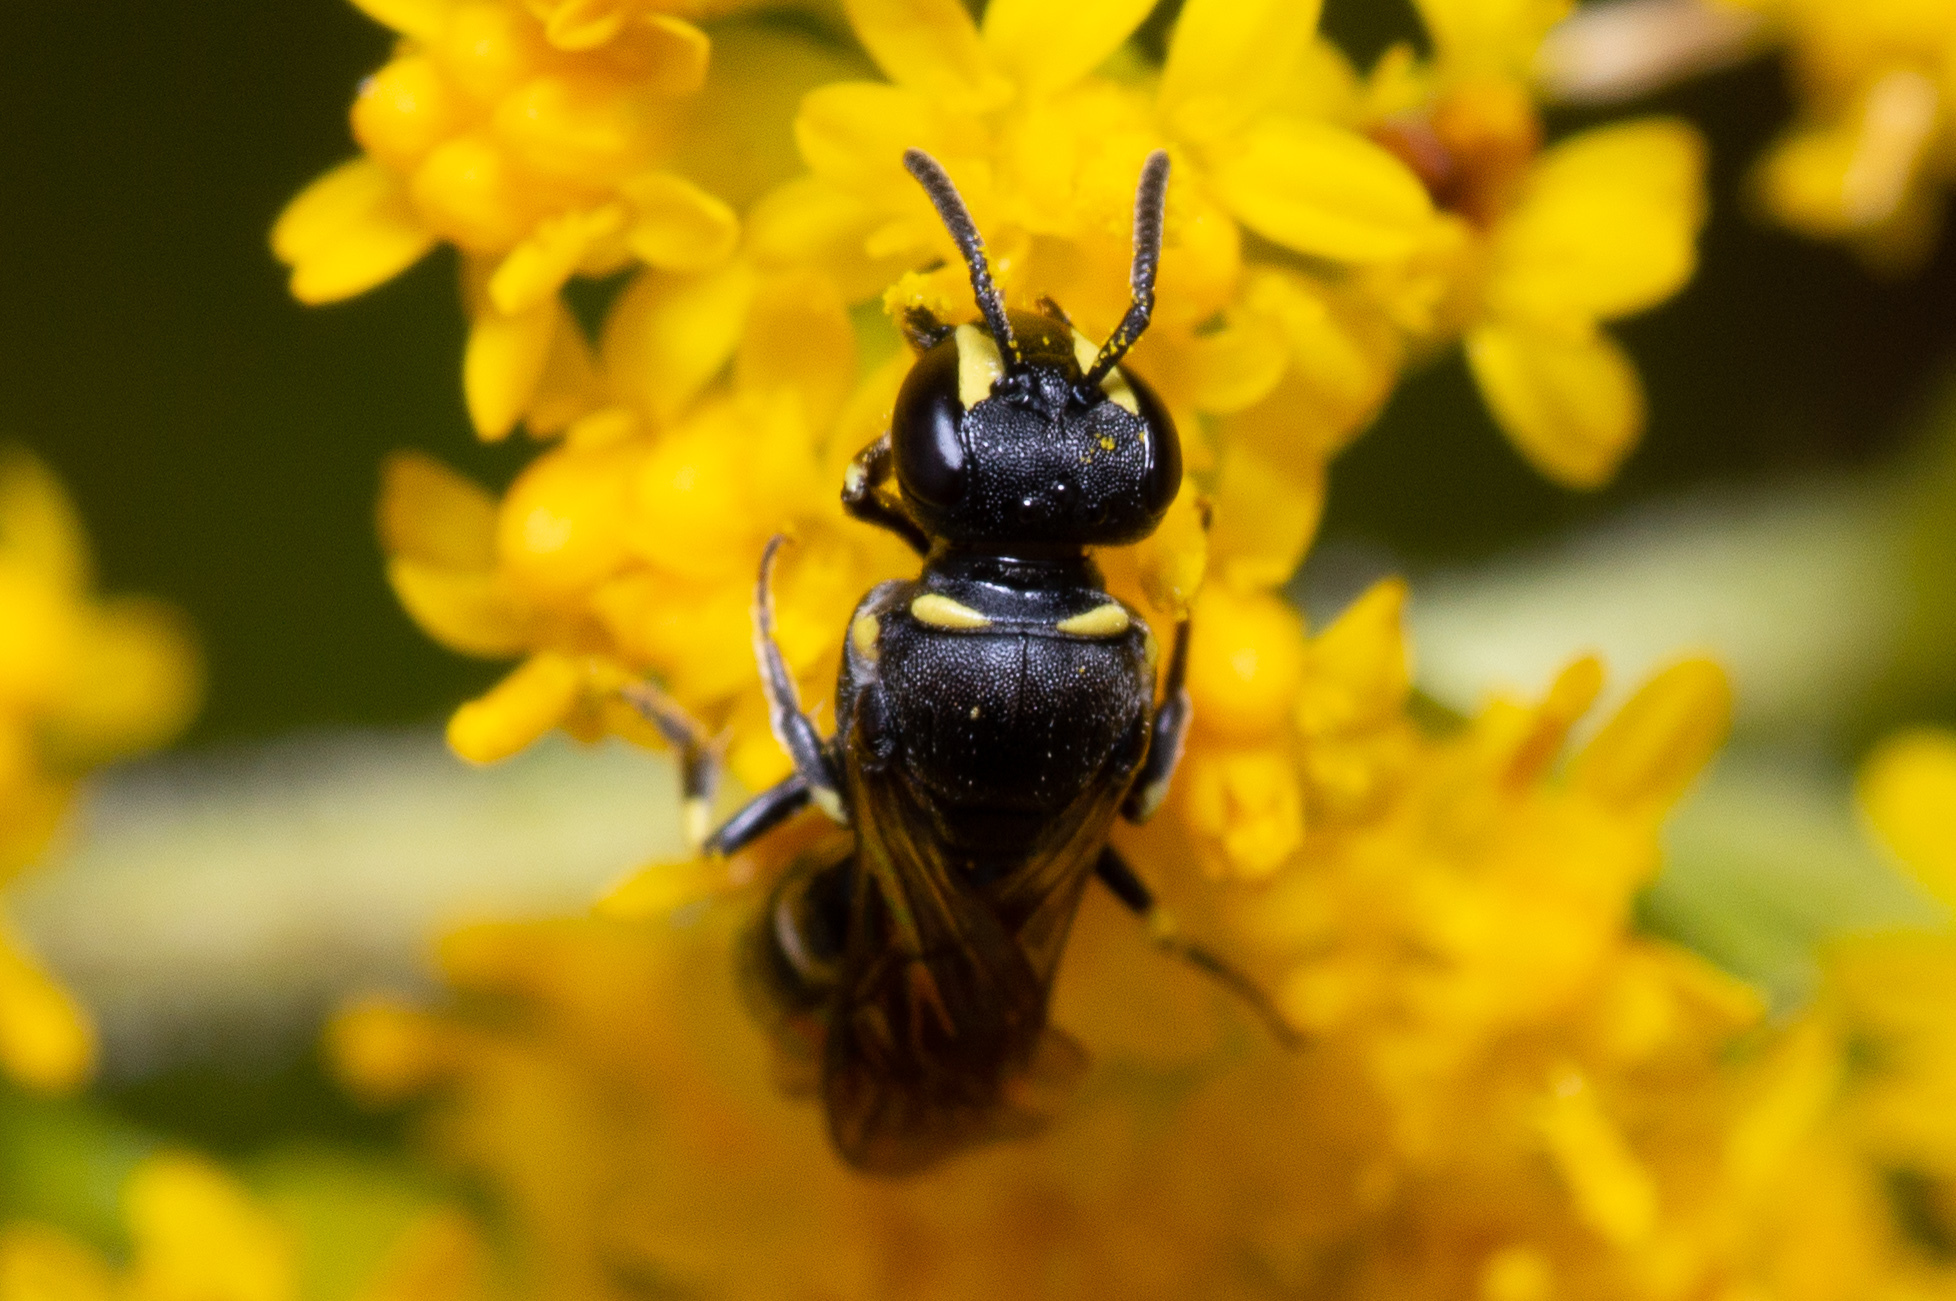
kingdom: Animalia
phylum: Arthropoda
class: Insecta
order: Hymenoptera
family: Colletidae
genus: Hylaeus
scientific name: Hylaeus modestus
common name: Yellow-faced bee
